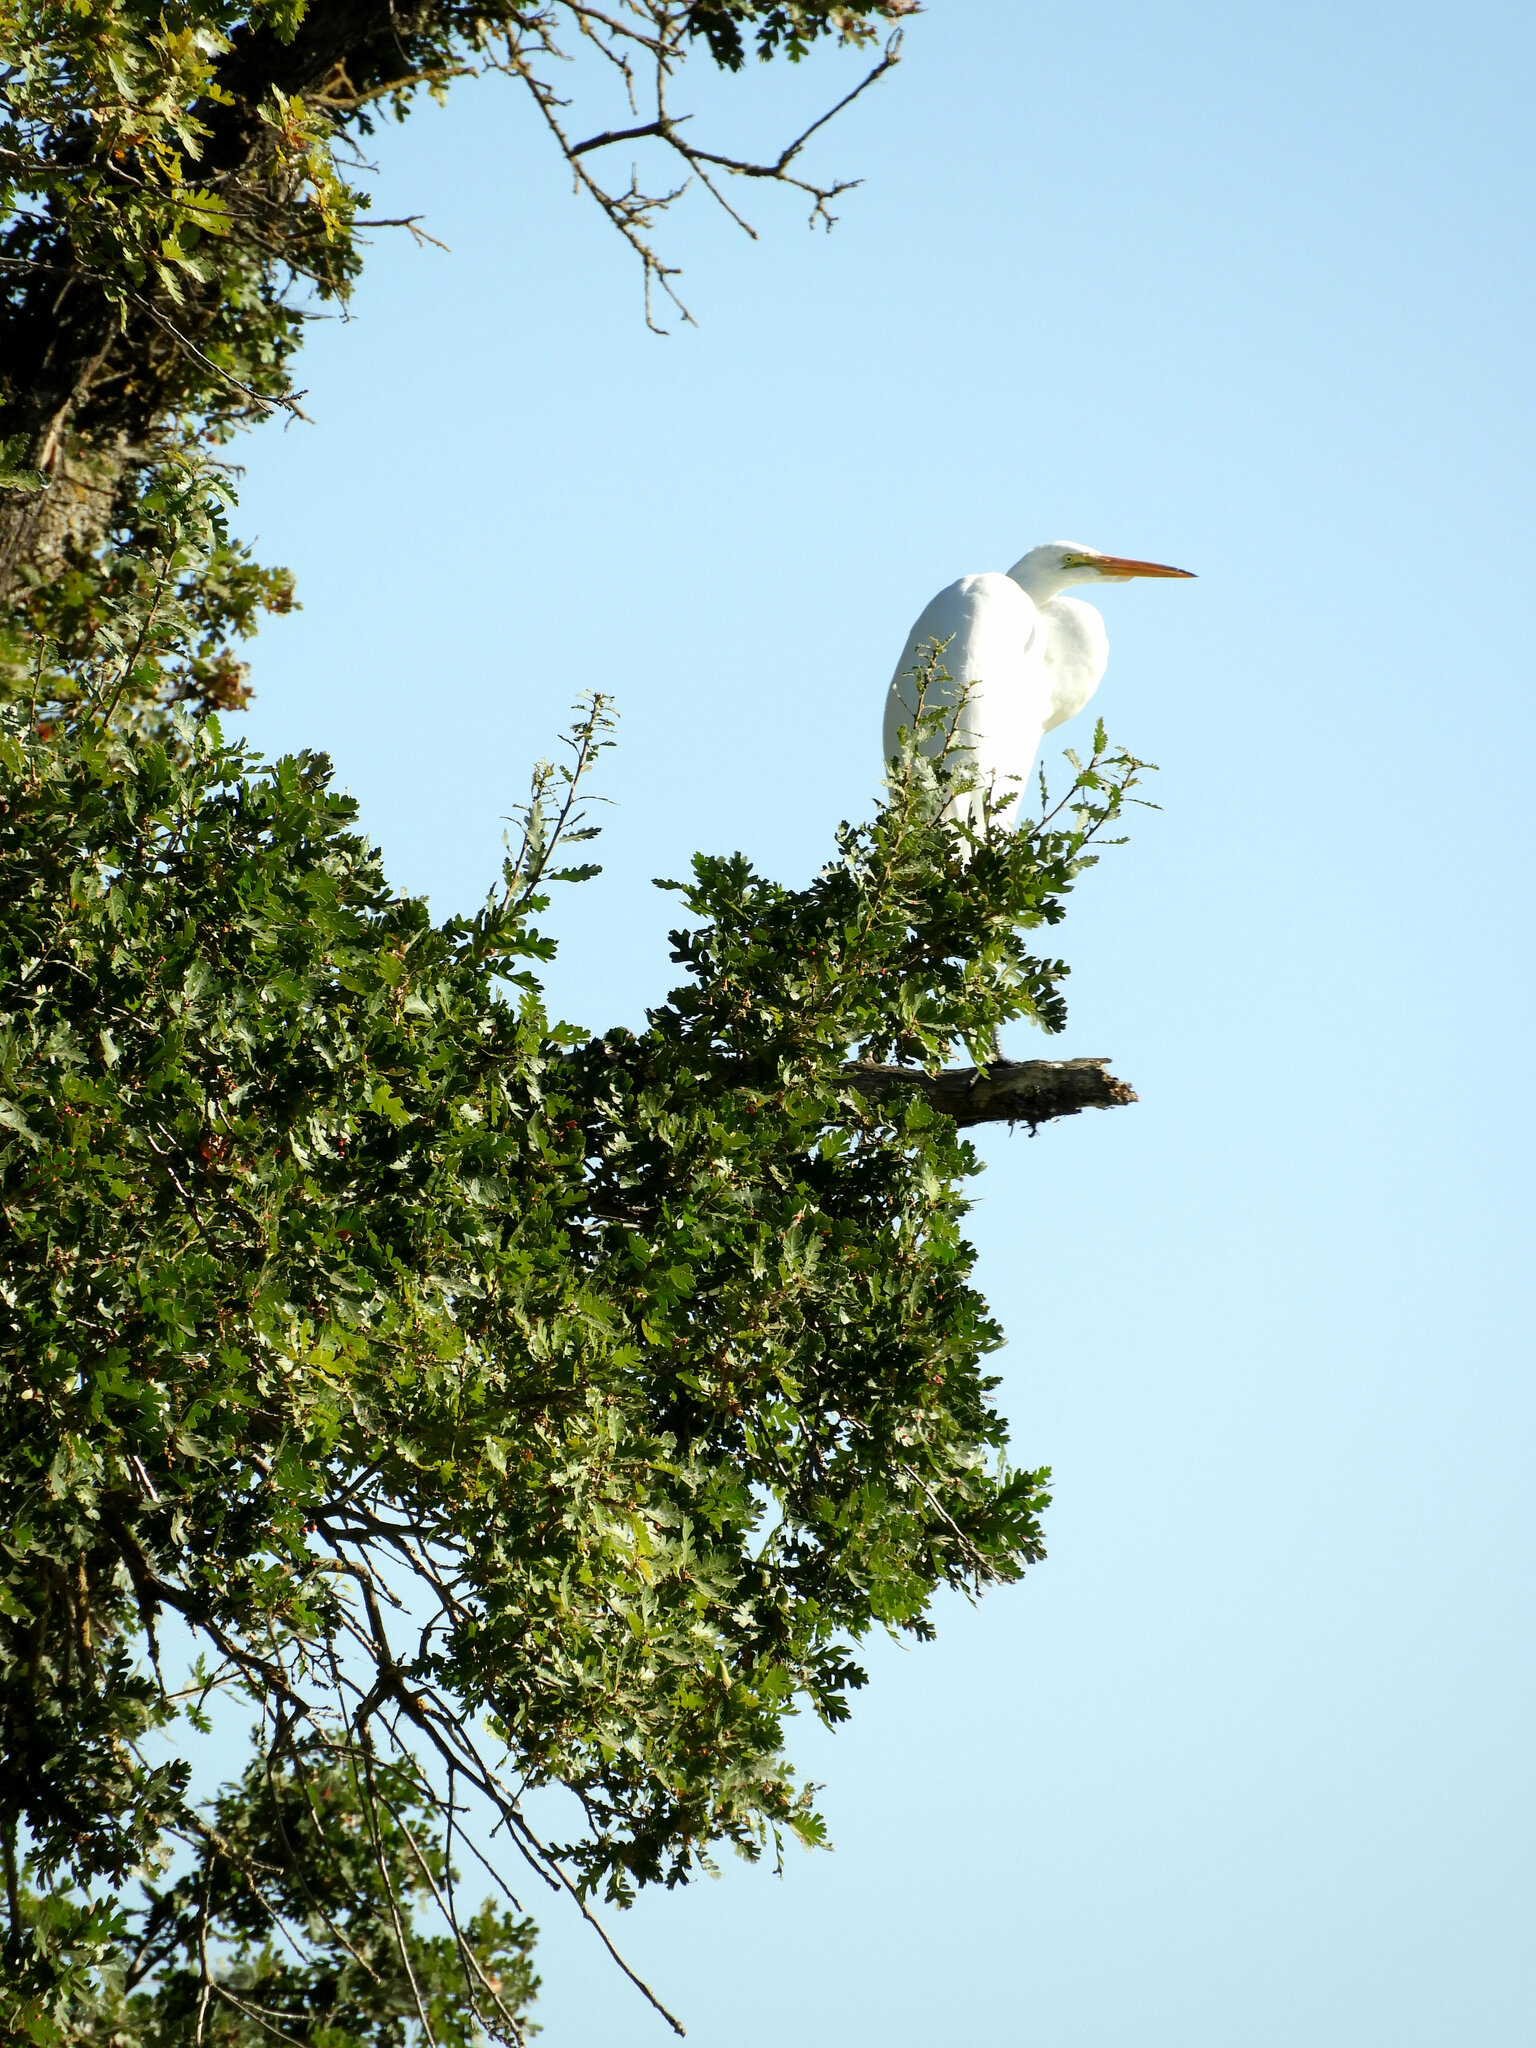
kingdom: Animalia
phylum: Chordata
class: Aves
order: Pelecaniformes
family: Ardeidae
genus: Ardea
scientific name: Ardea alba
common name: Great egret
